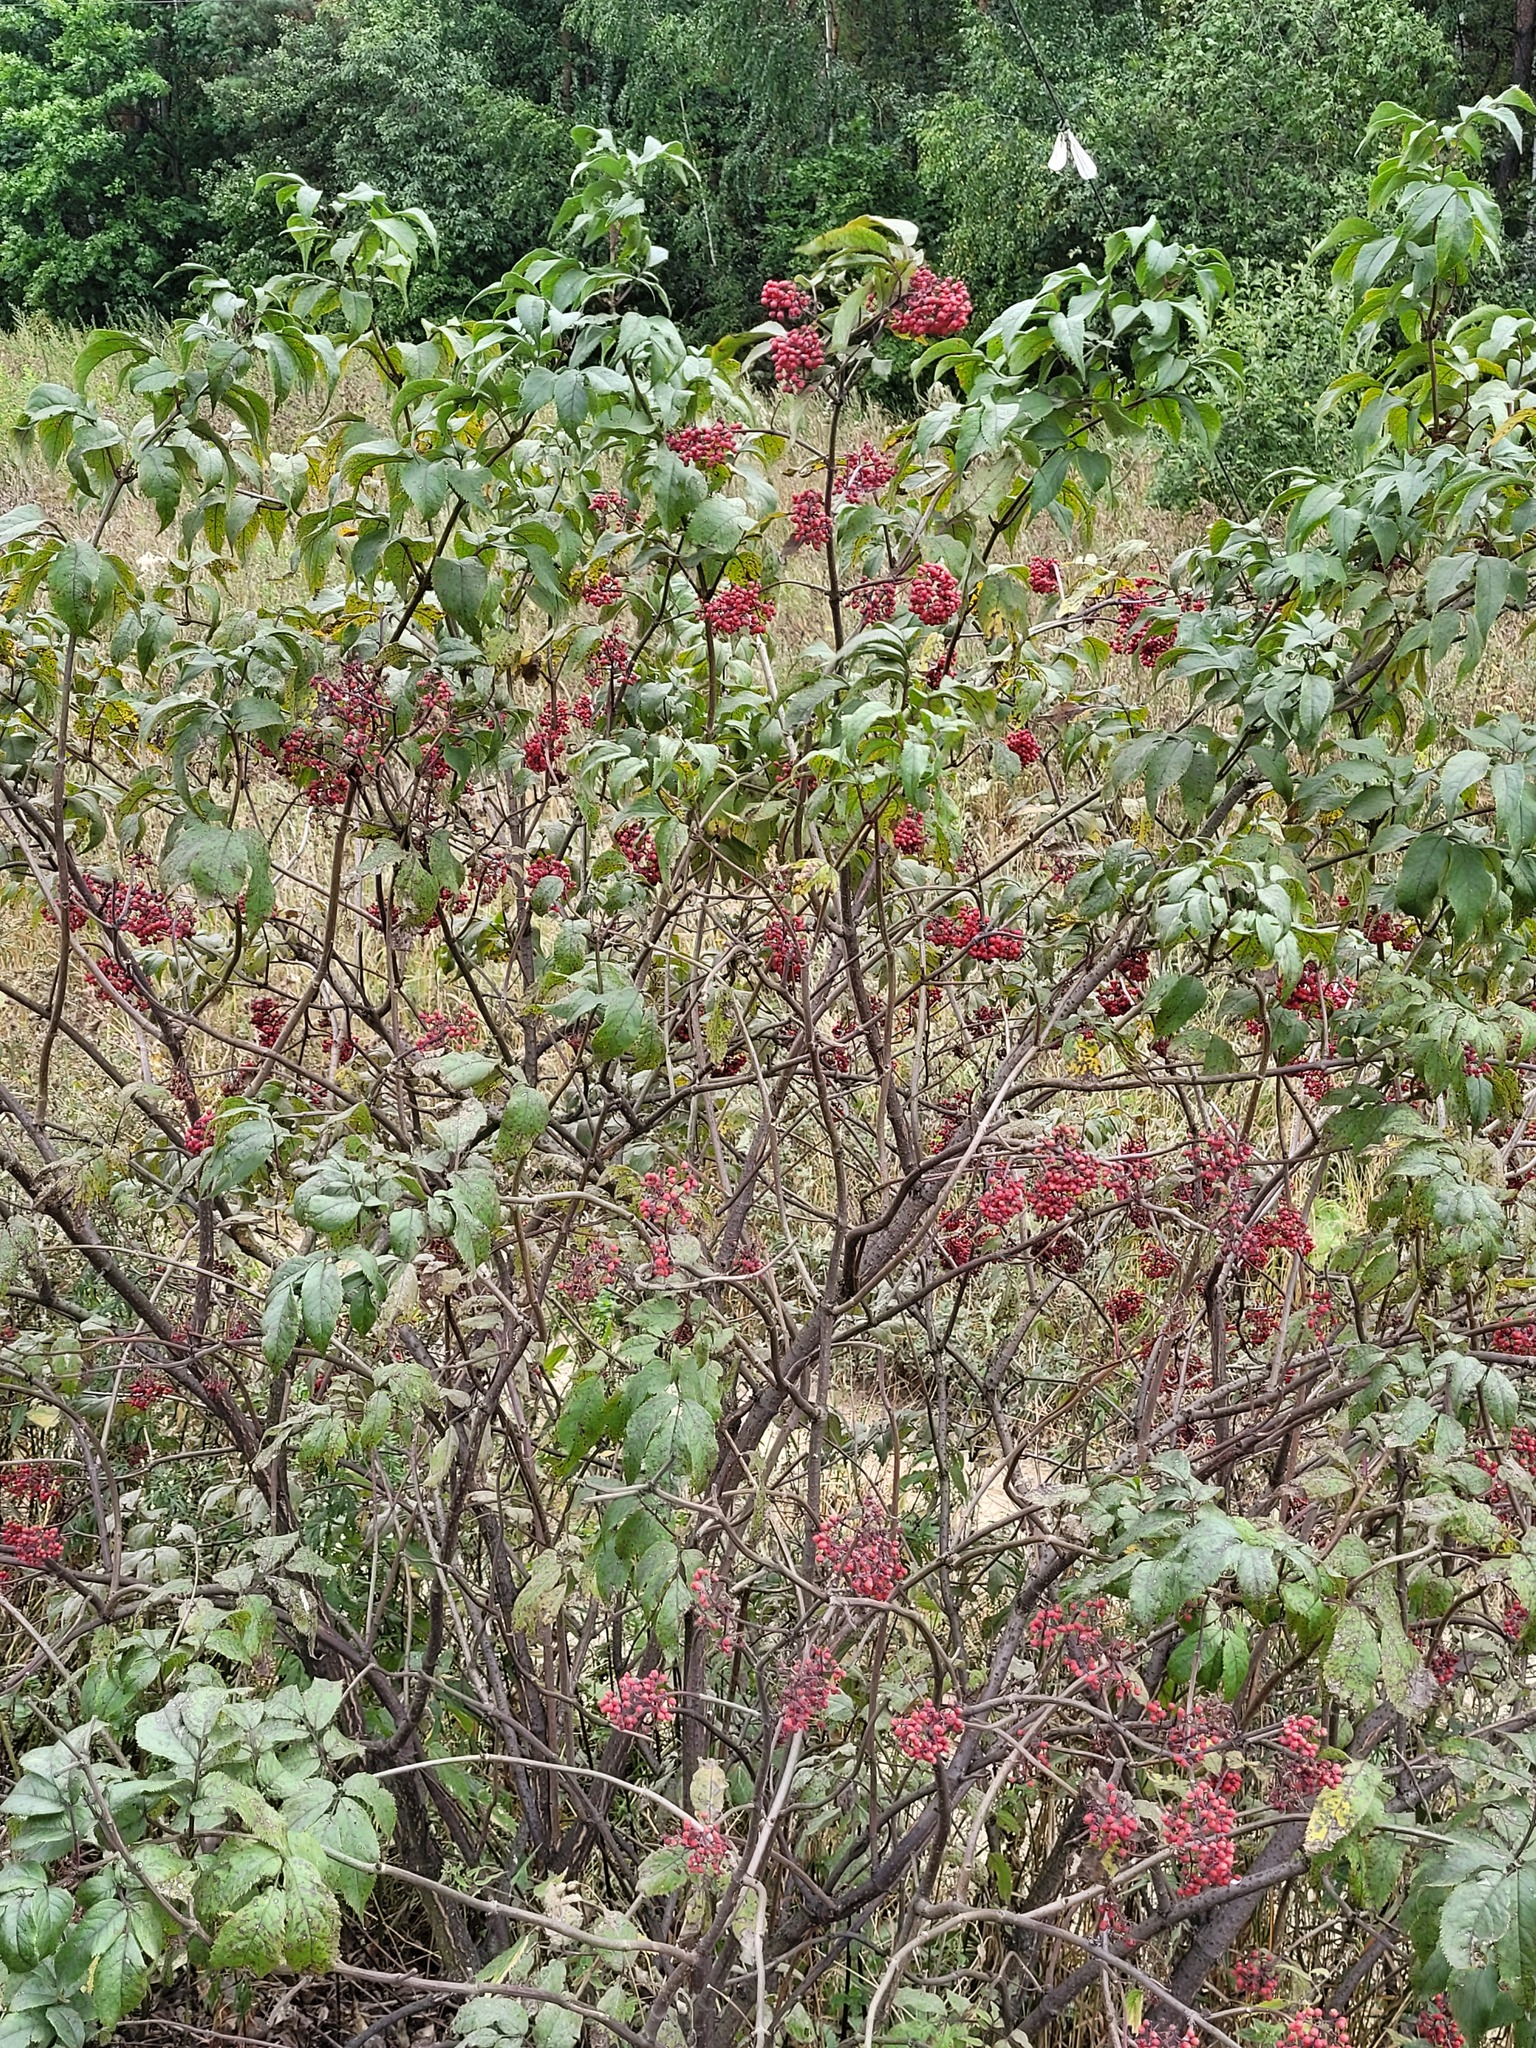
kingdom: Plantae
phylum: Tracheophyta
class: Magnoliopsida
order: Dipsacales
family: Viburnaceae
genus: Sambucus
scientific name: Sambucus racemosa
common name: Red-berried elder
